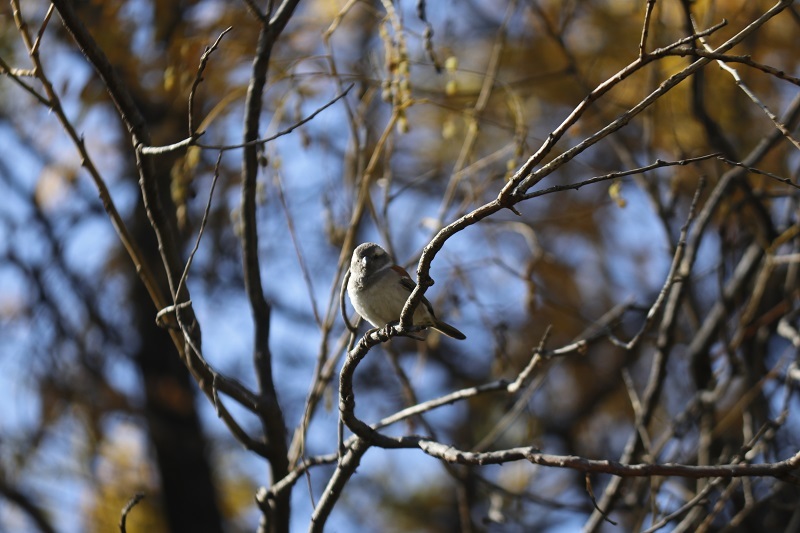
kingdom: Animalia
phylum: Chordata
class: Aves
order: Passeriformes
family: Passeridae
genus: Passer
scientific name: Passer melanurus
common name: Cape sparrow
